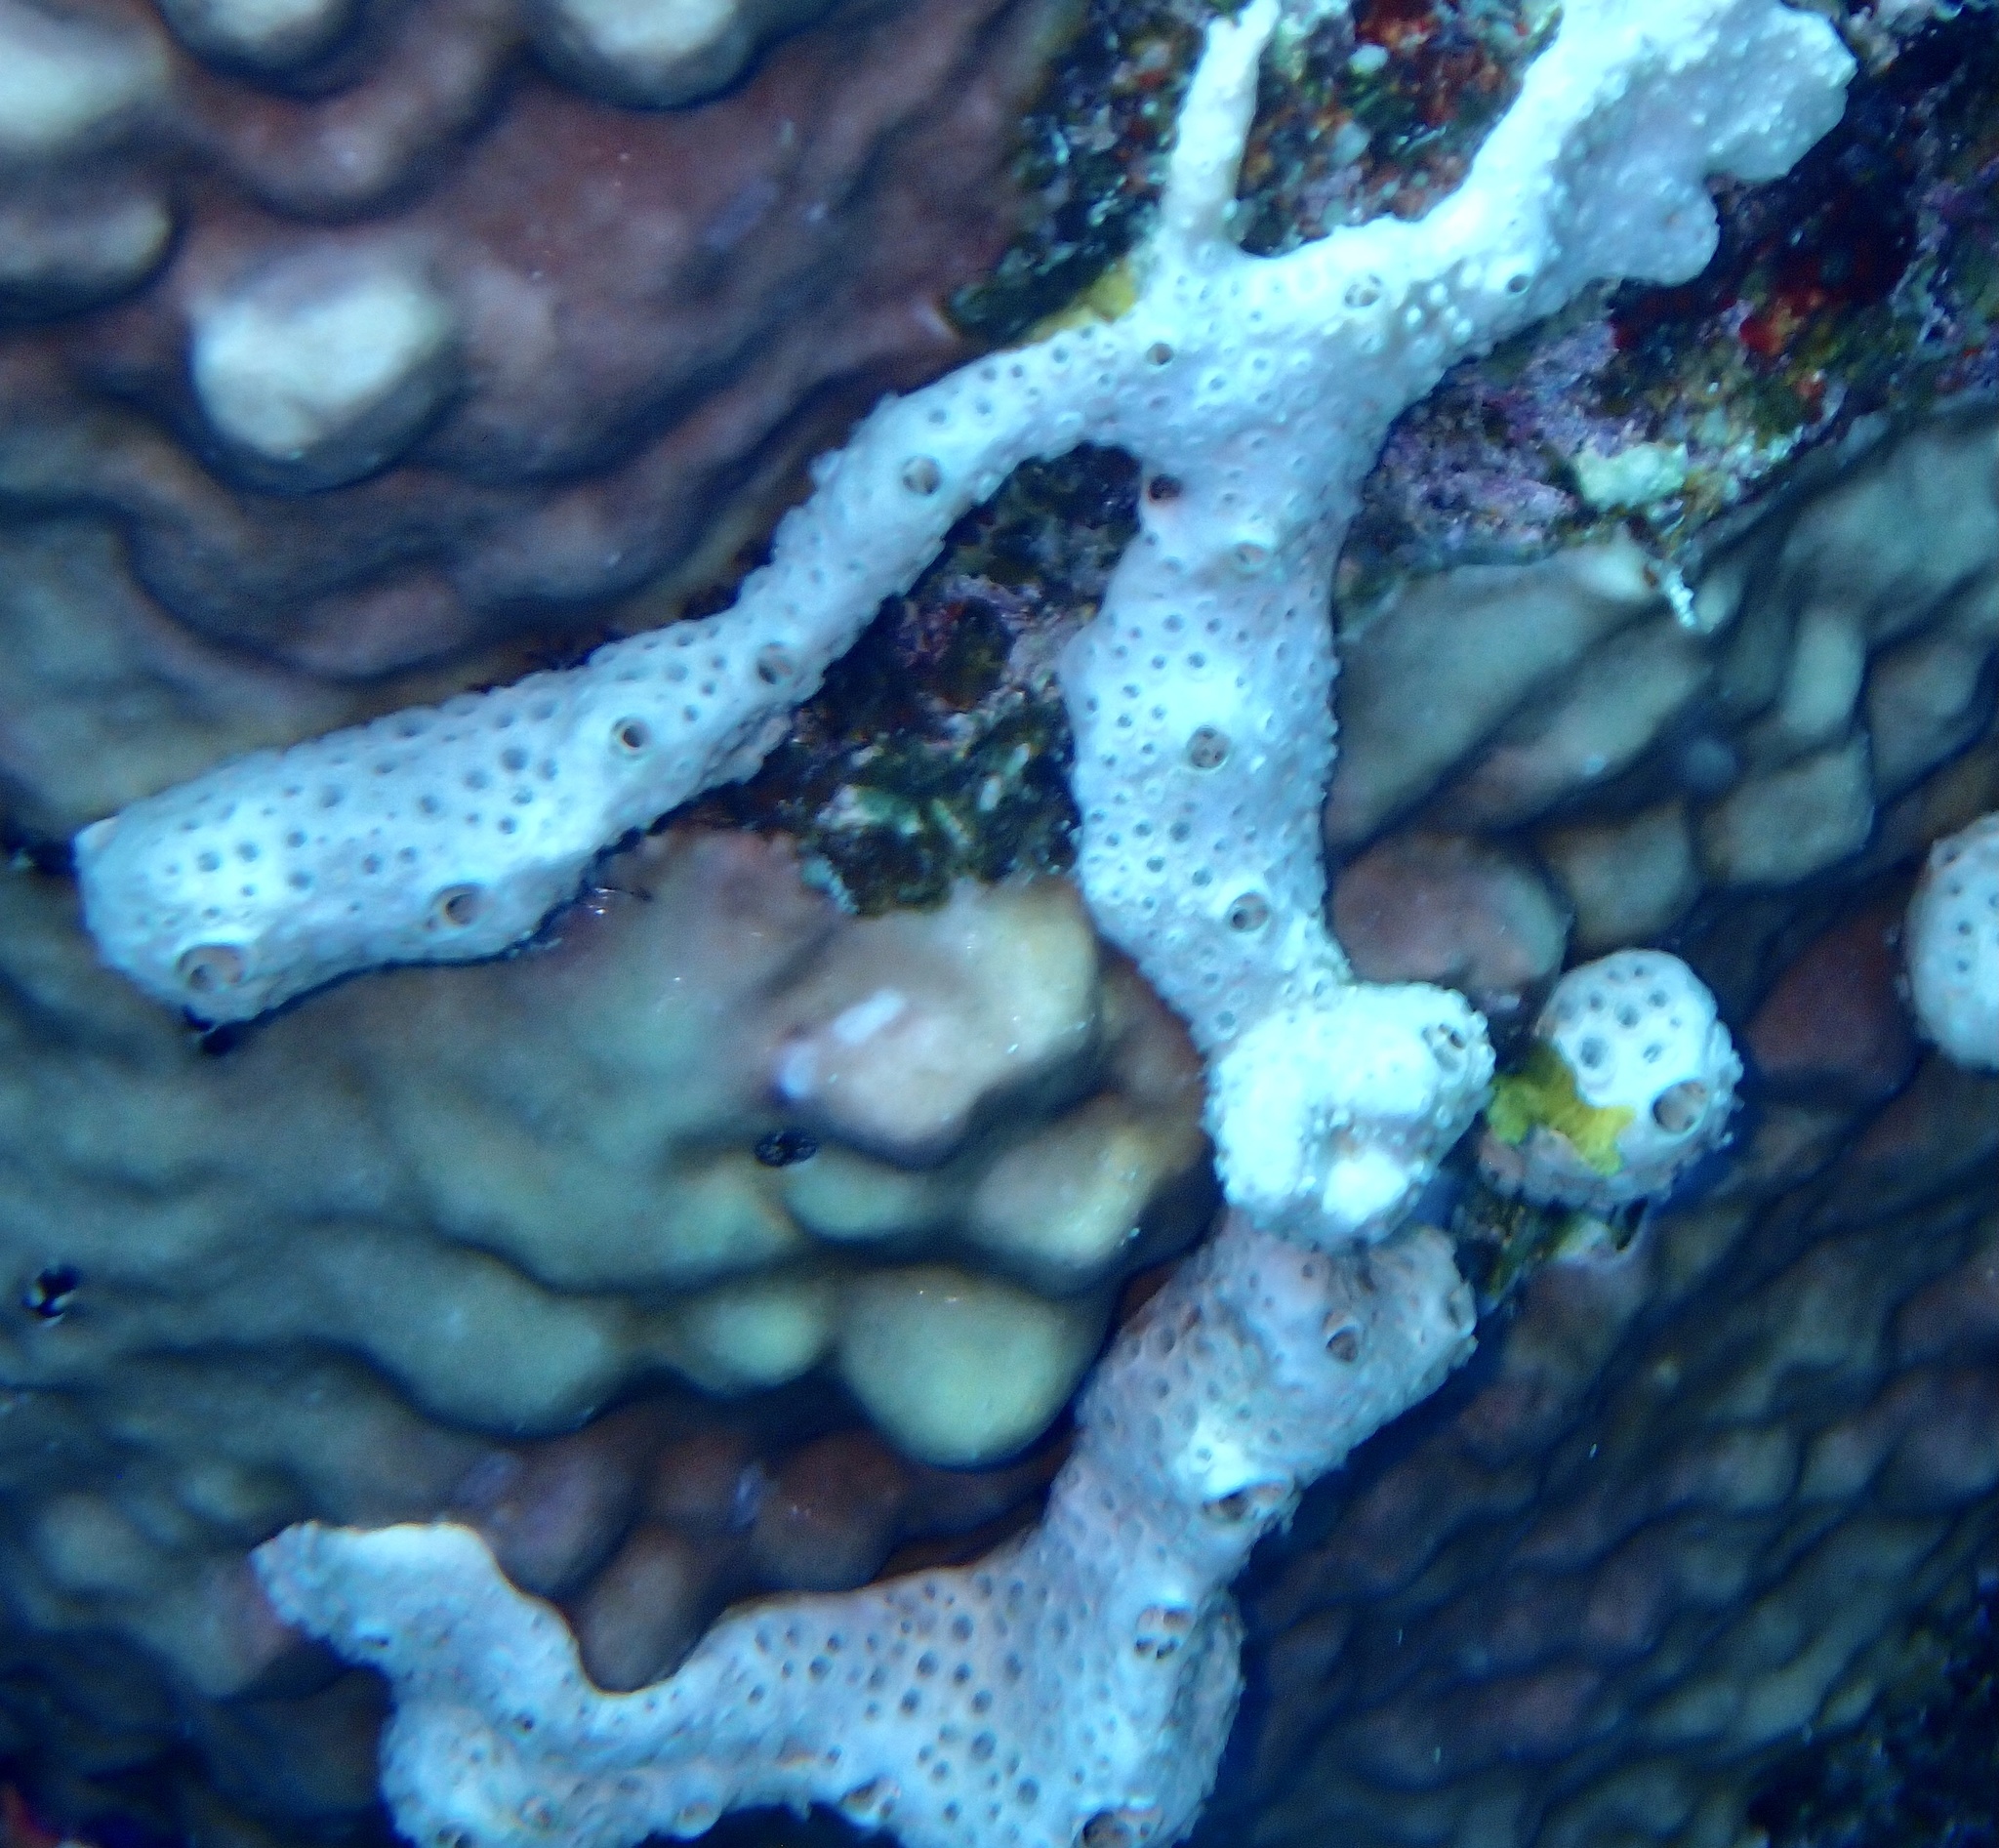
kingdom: Animalia
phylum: Porifera
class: Demospongiae
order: Poecilosclerida
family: Crellidae
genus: Crella
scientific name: Crella cyathophora
